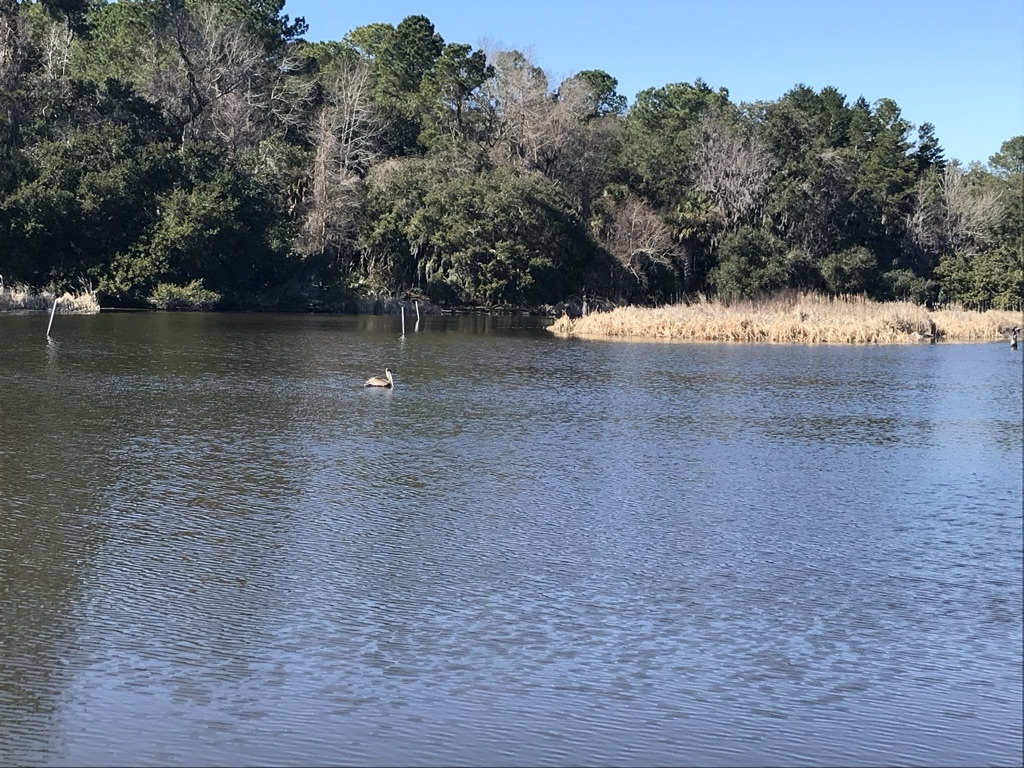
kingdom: Animalia
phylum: Chordata
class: Aves
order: Pelecaniformes
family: Pelecanidae
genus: Pelecanus
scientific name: Pelecanus occidentalis
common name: Brown pelican
